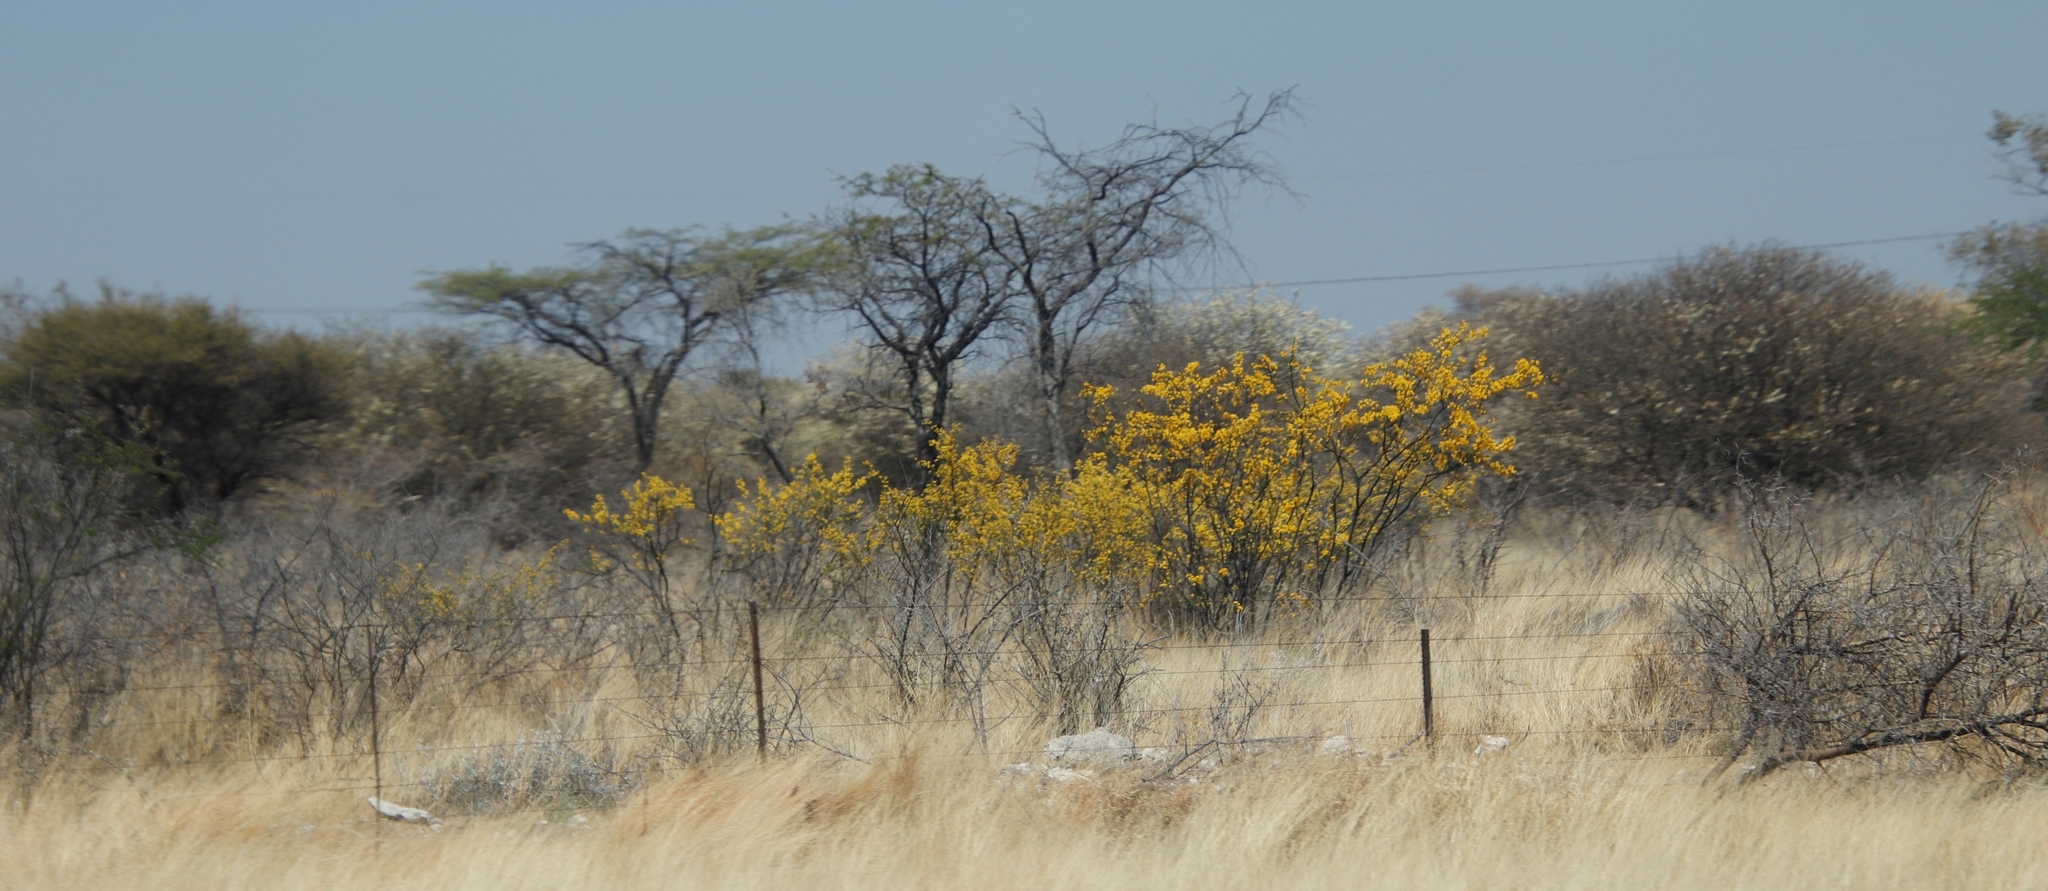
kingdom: Plantae
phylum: Tracheophyta
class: Magnoliopsida
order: Lamiales
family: Bignoniaceae
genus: Rhigozum
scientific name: Rhigozum brevispinosum
